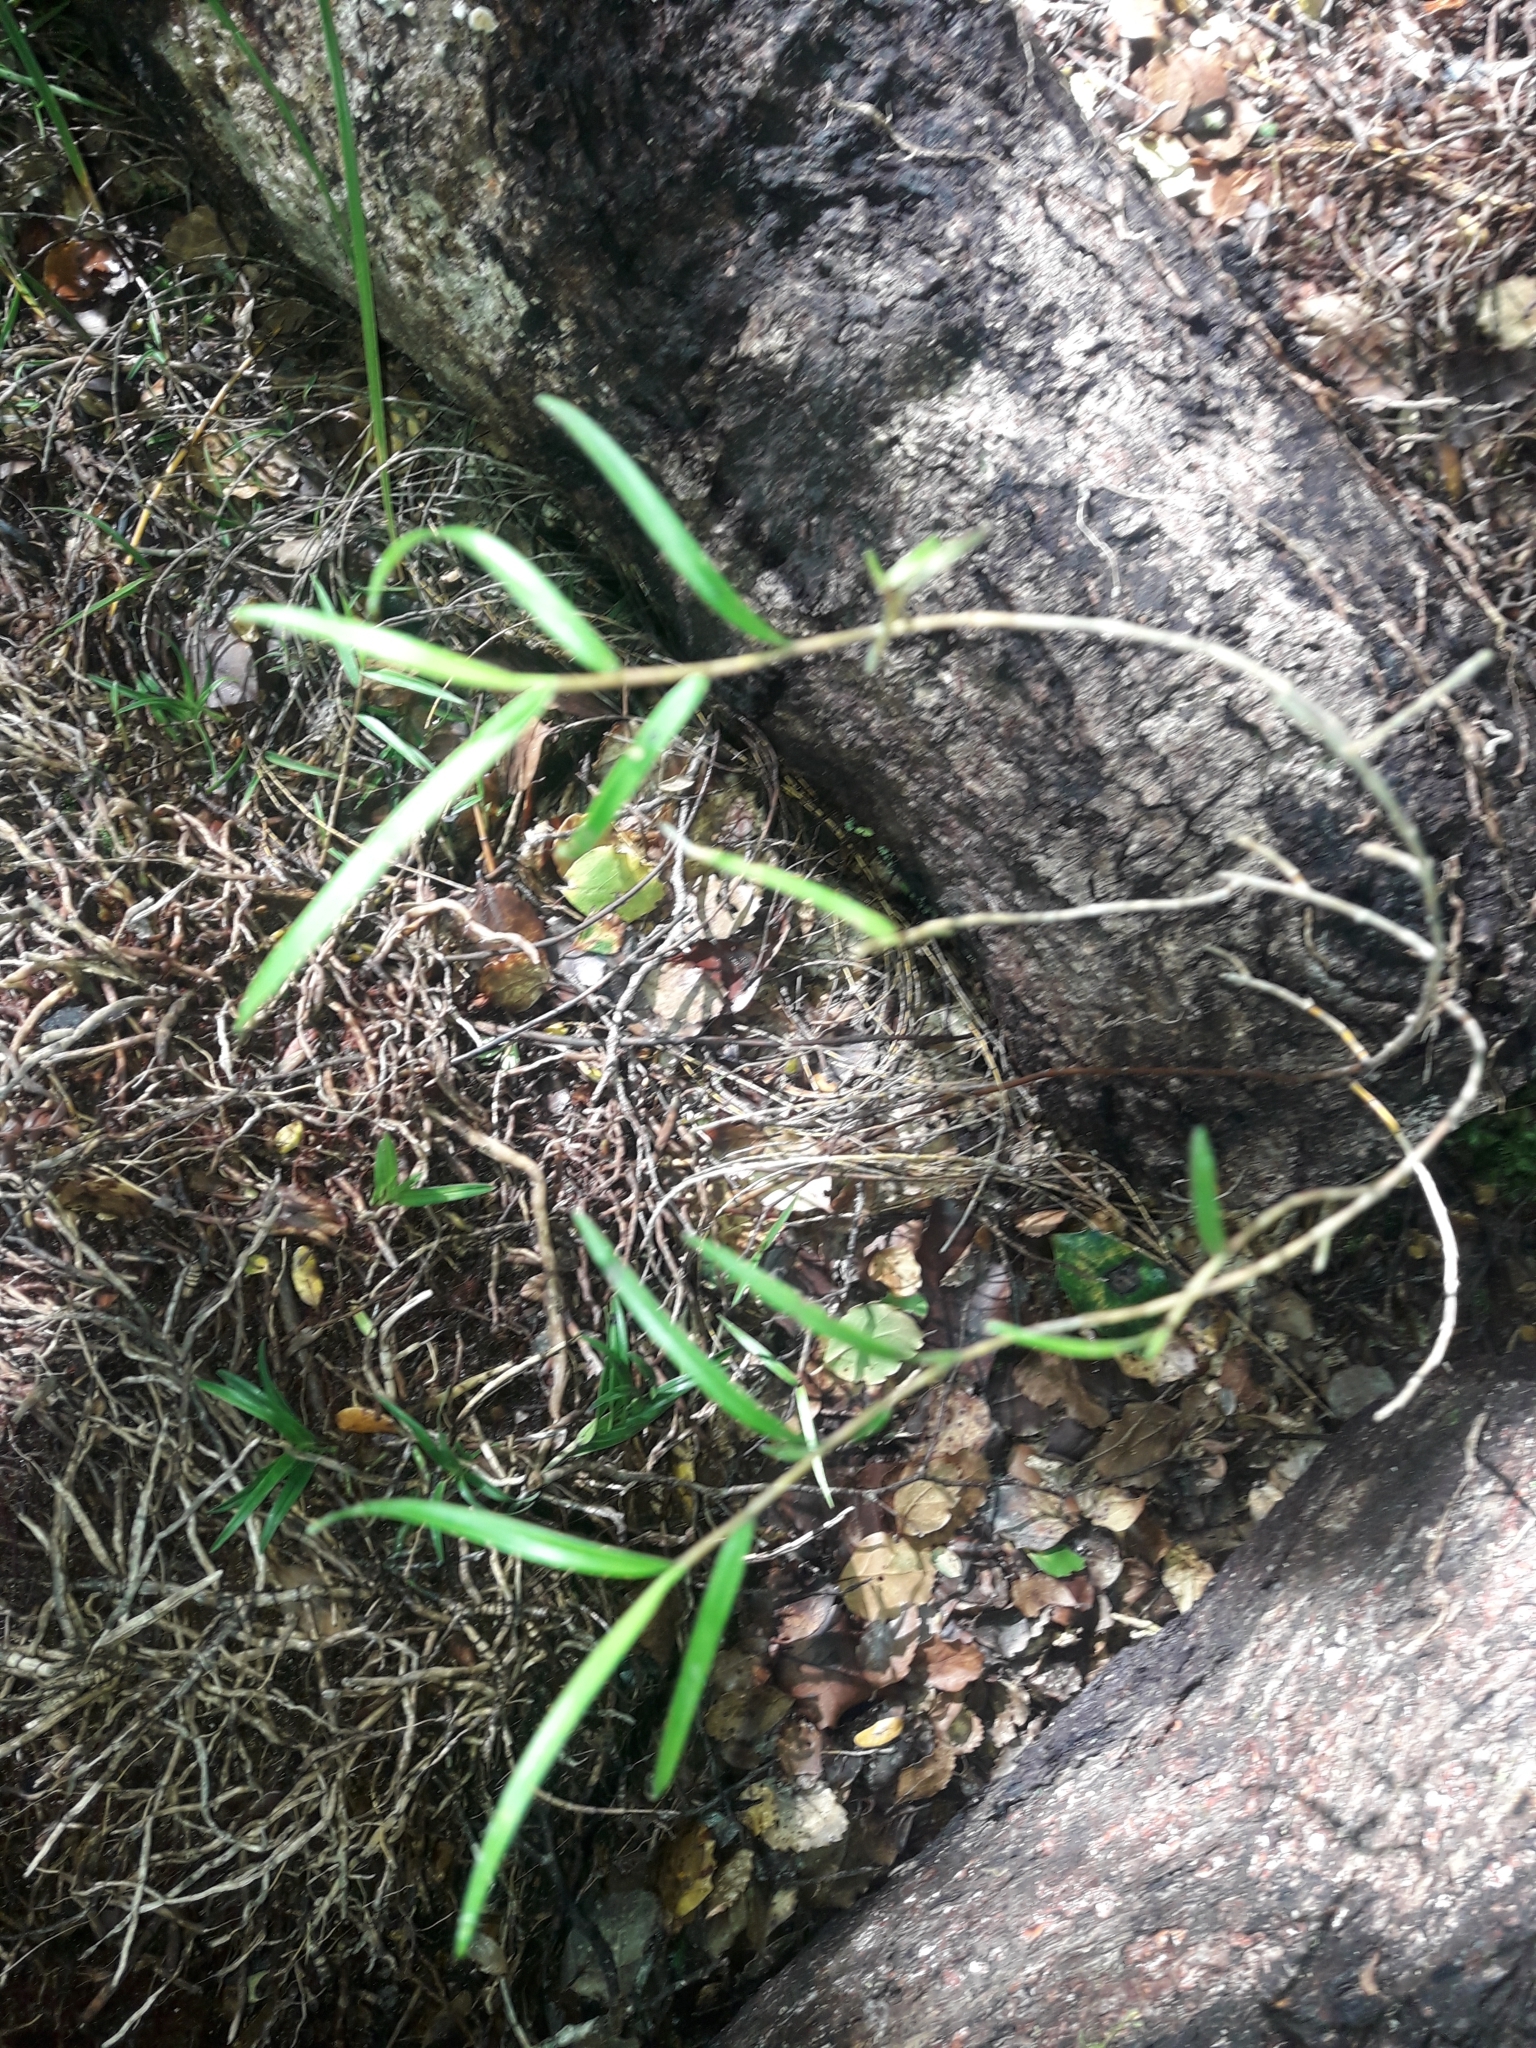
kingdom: Plantae
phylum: Tracheophyta
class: Liliopsida
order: Asparagales
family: Orchidaceae
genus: Dendrobium
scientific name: Dendrobium cunninghamii
